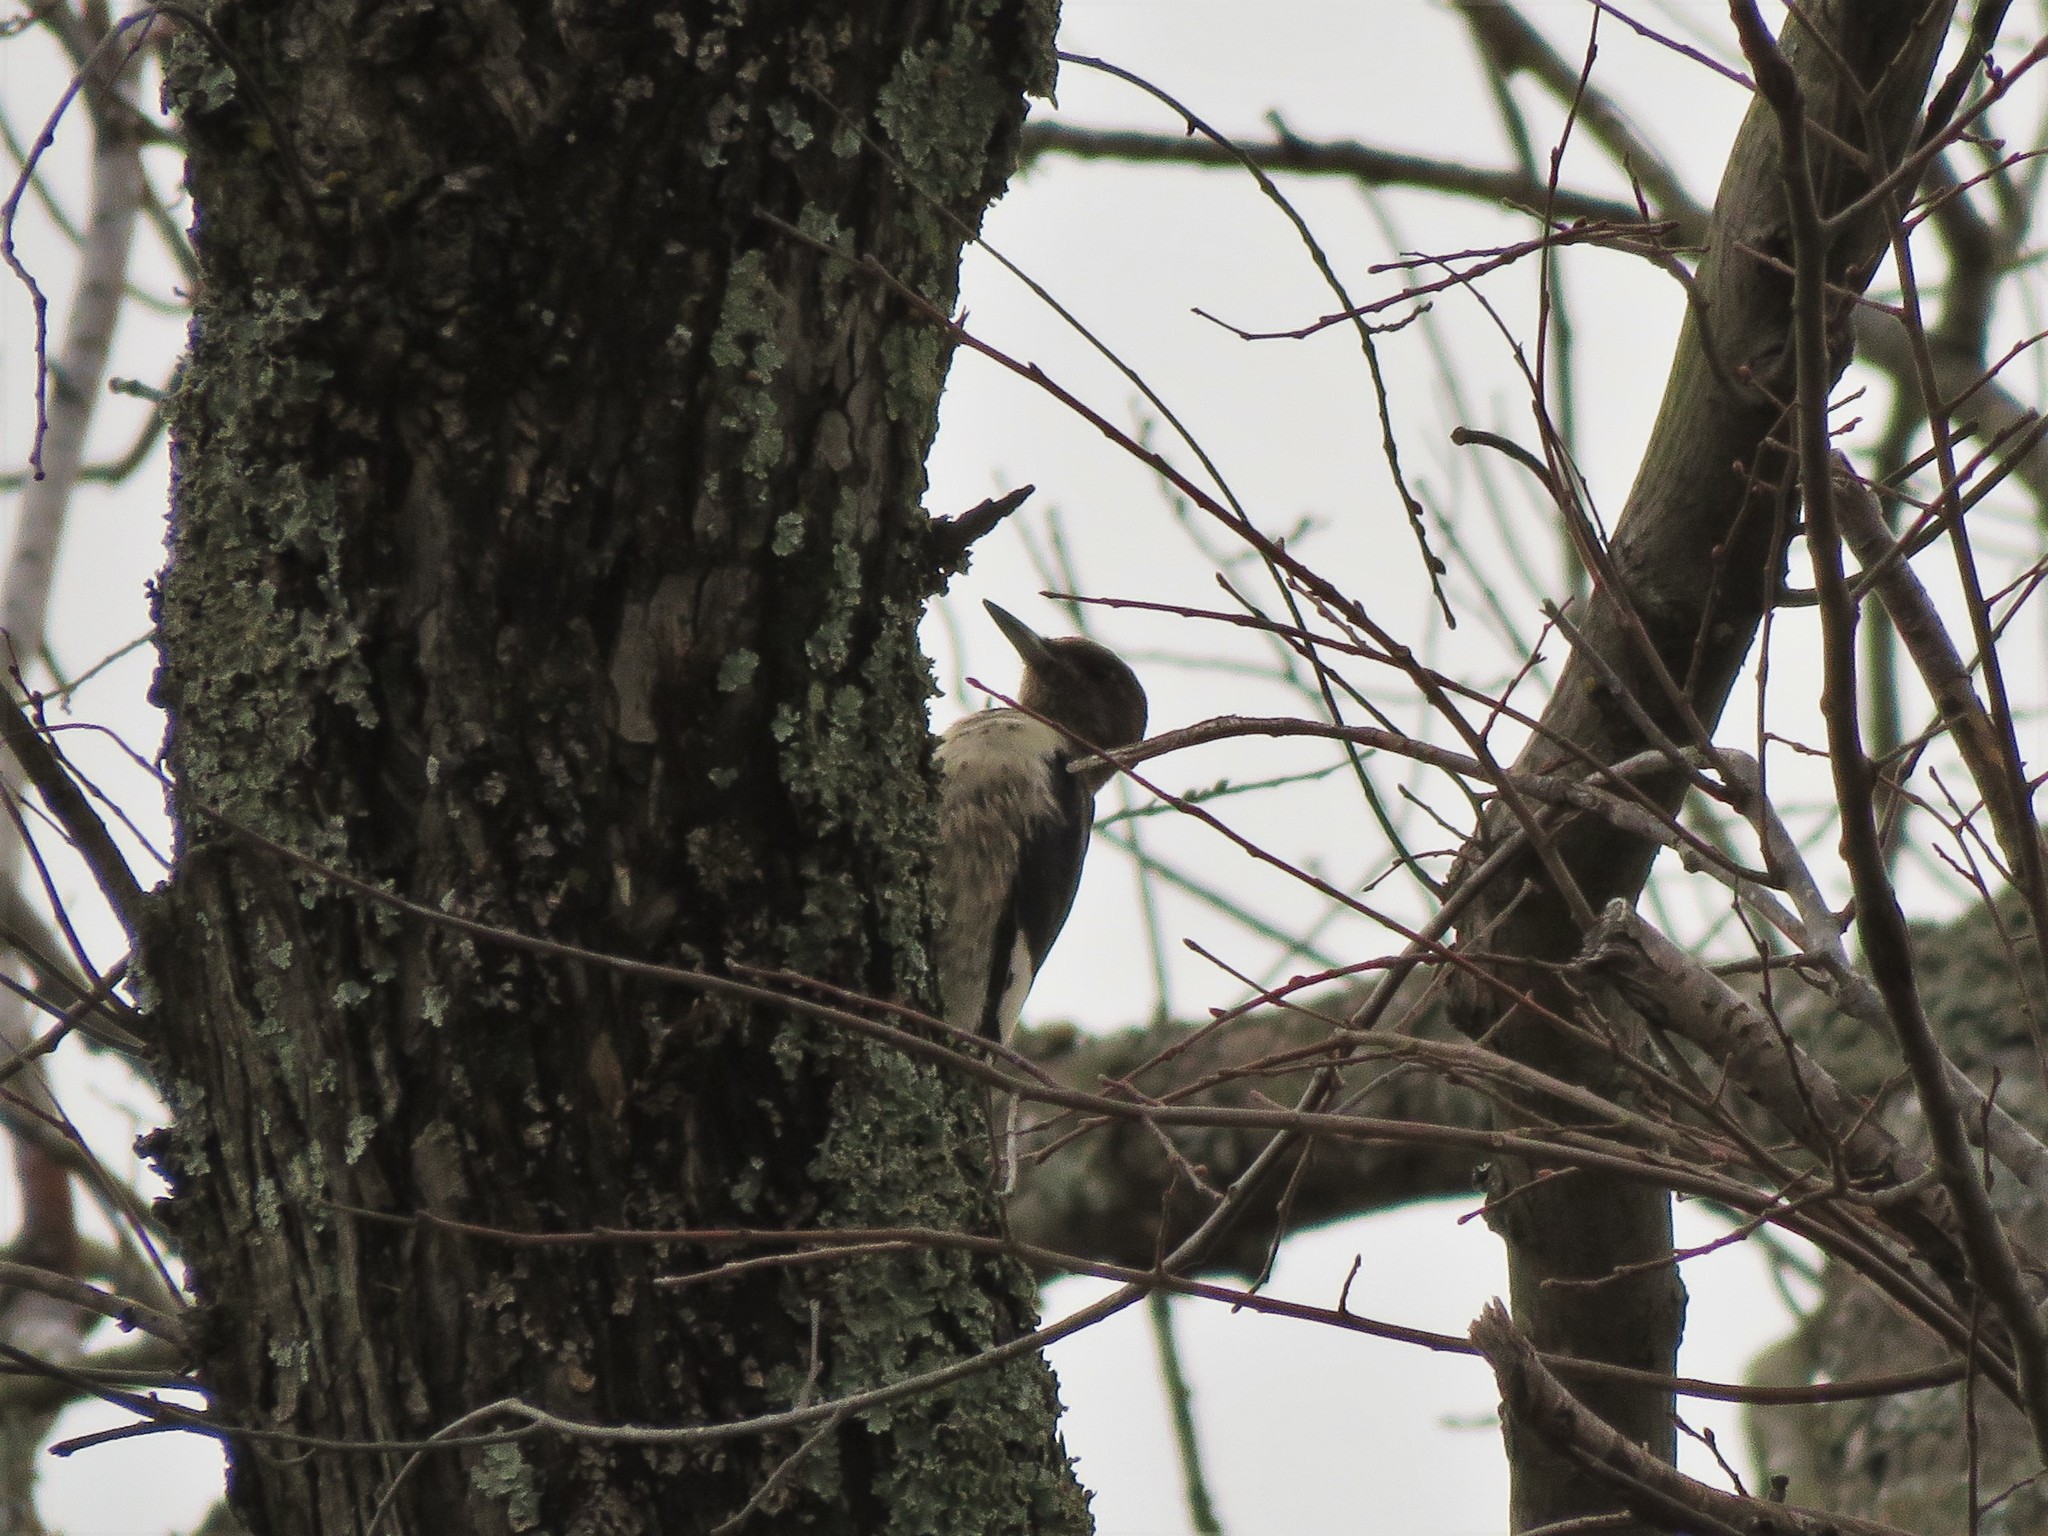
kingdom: Animalia
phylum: Chordata
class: Aves
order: Piciformes
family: Picidae
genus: Melanerpes
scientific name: Melanerpes erythrocephalus
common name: Red-headed woodpecker
